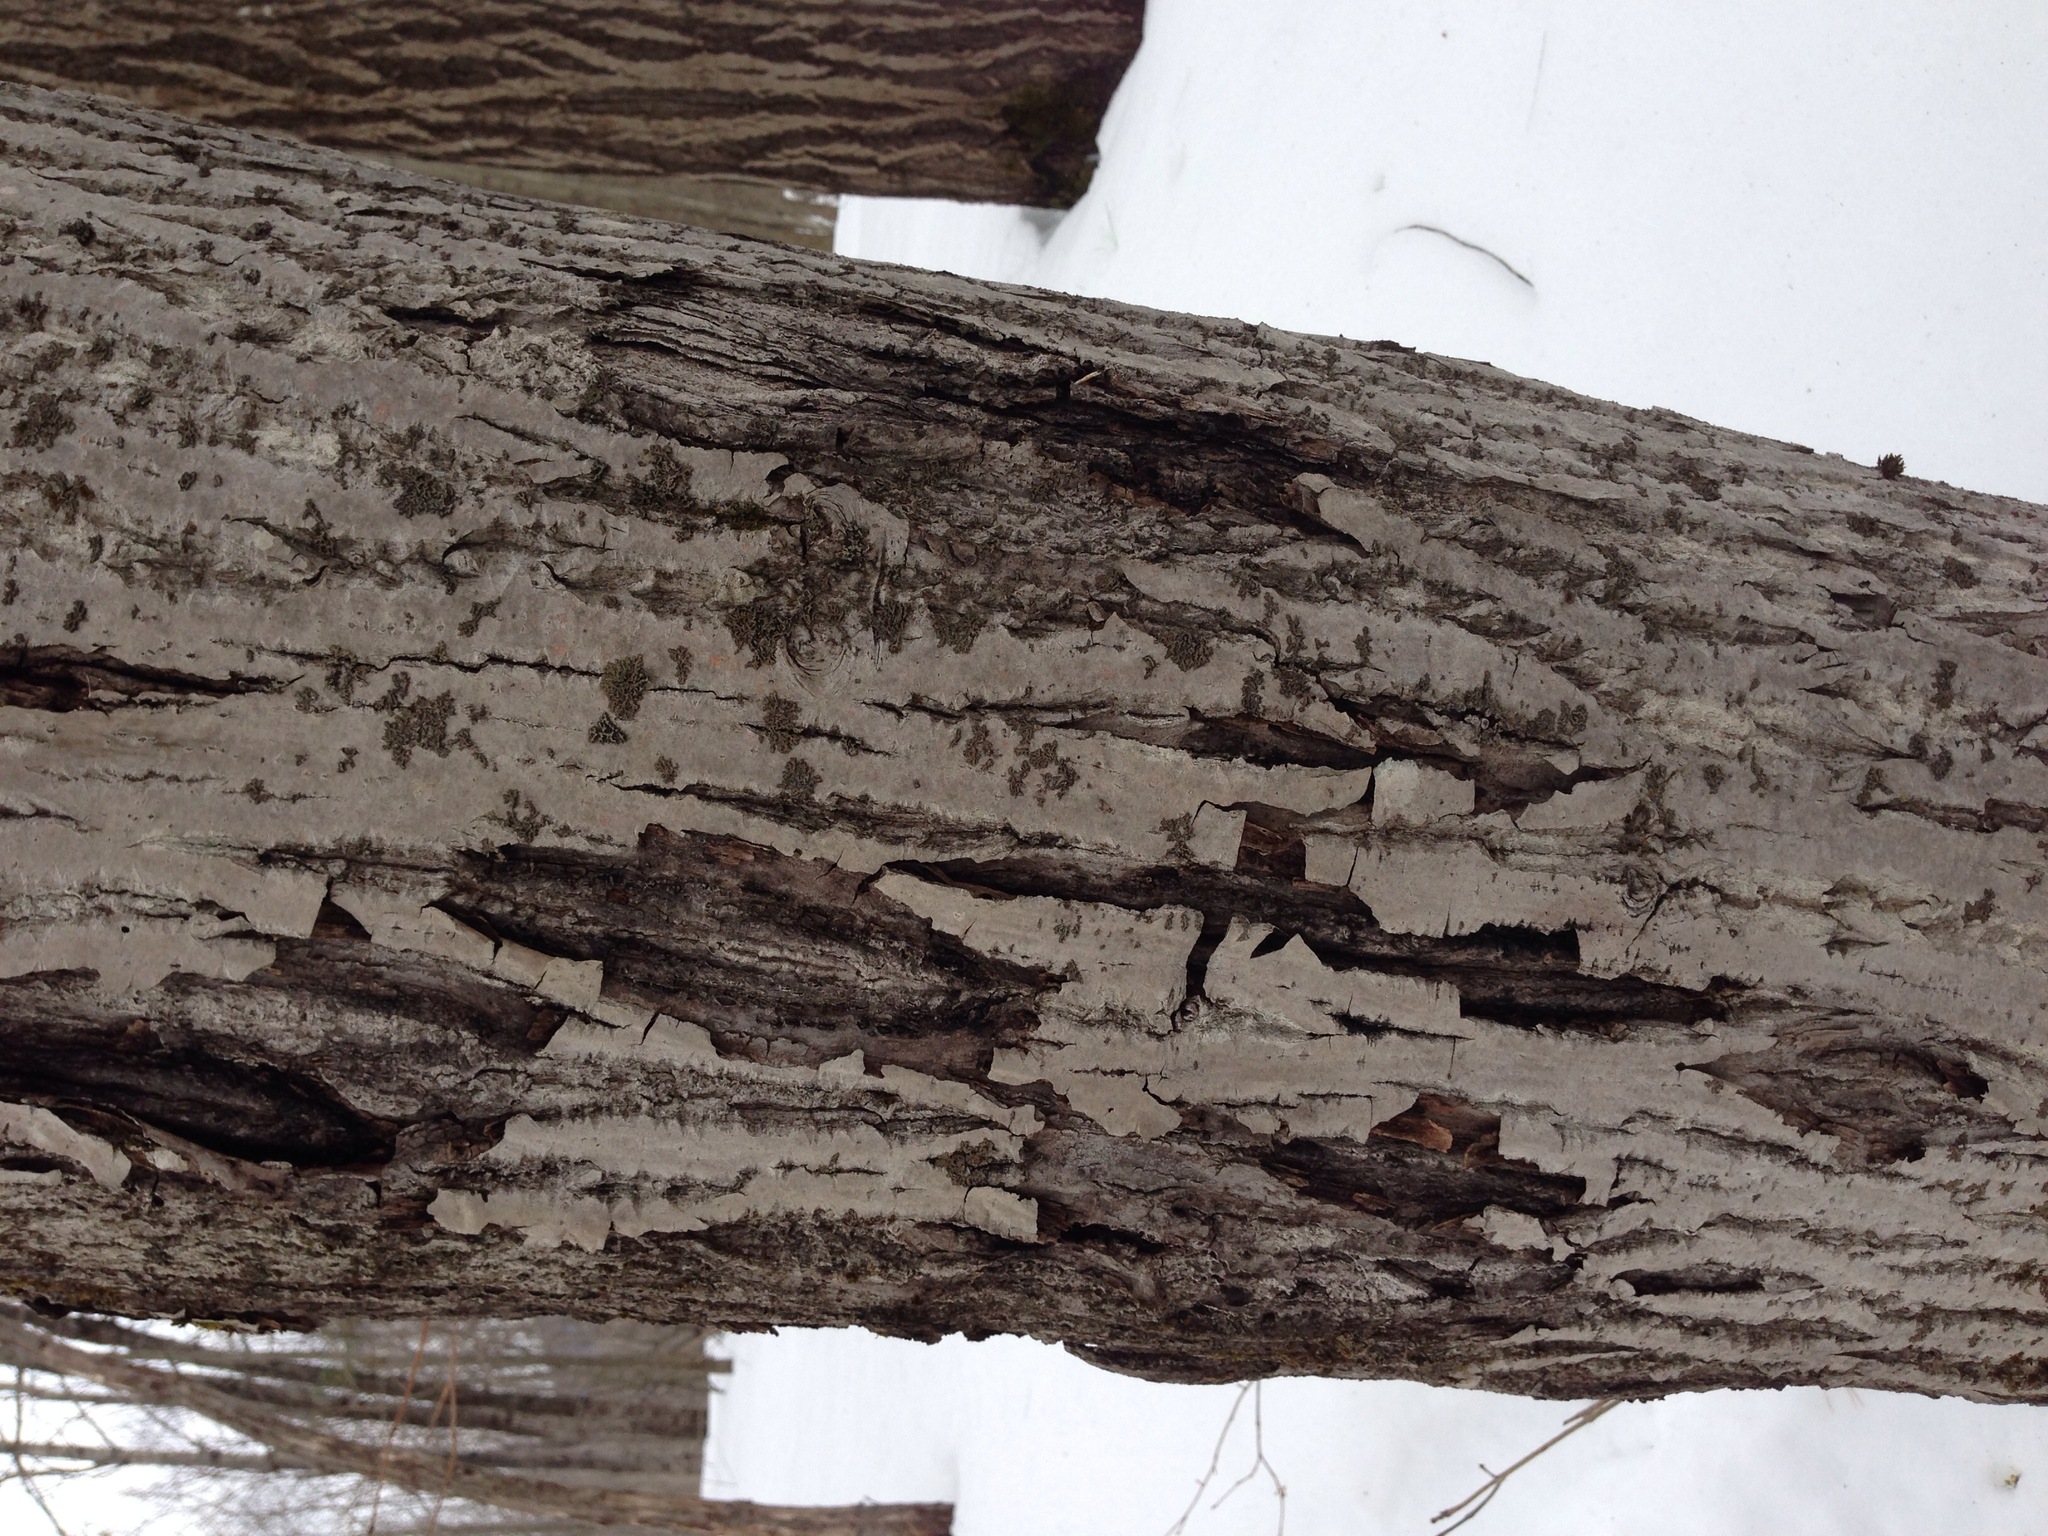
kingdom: Plantae
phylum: Tracheophyta
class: Magnoliopsida
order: Fagales
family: Juglandaceae
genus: Juglans
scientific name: Juglans cinerea
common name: Butternut
